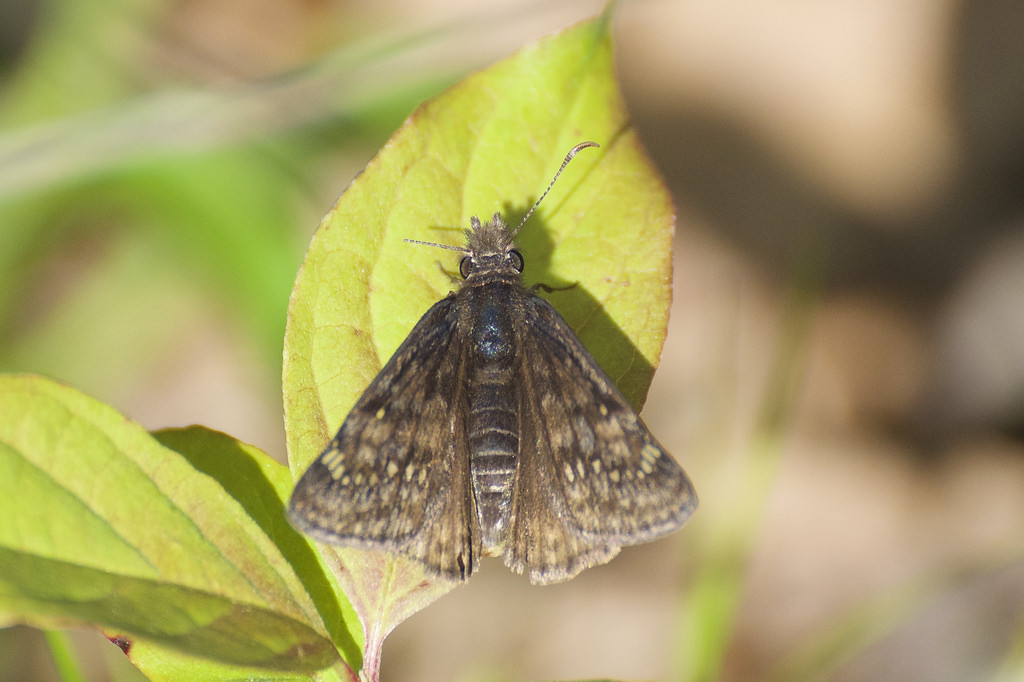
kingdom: Animalia
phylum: Arthropoda
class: Insecta
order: Lepidoptera
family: Hesperiidae
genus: Erynnis
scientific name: Erynnis juvenalis
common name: Juvenal's duskywing
